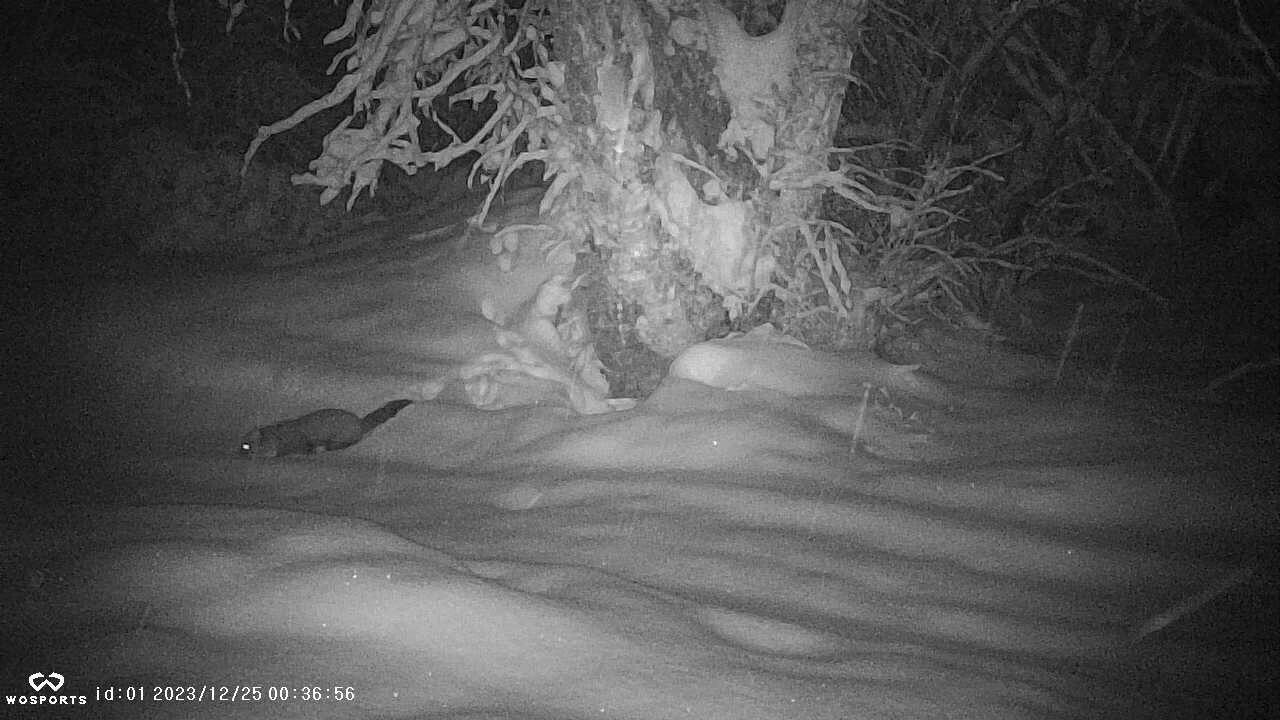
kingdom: Animalia
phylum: Chordata
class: Mammalia
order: Carnivora
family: Mustelidae
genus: Martes
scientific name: Martes americana
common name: American marten
